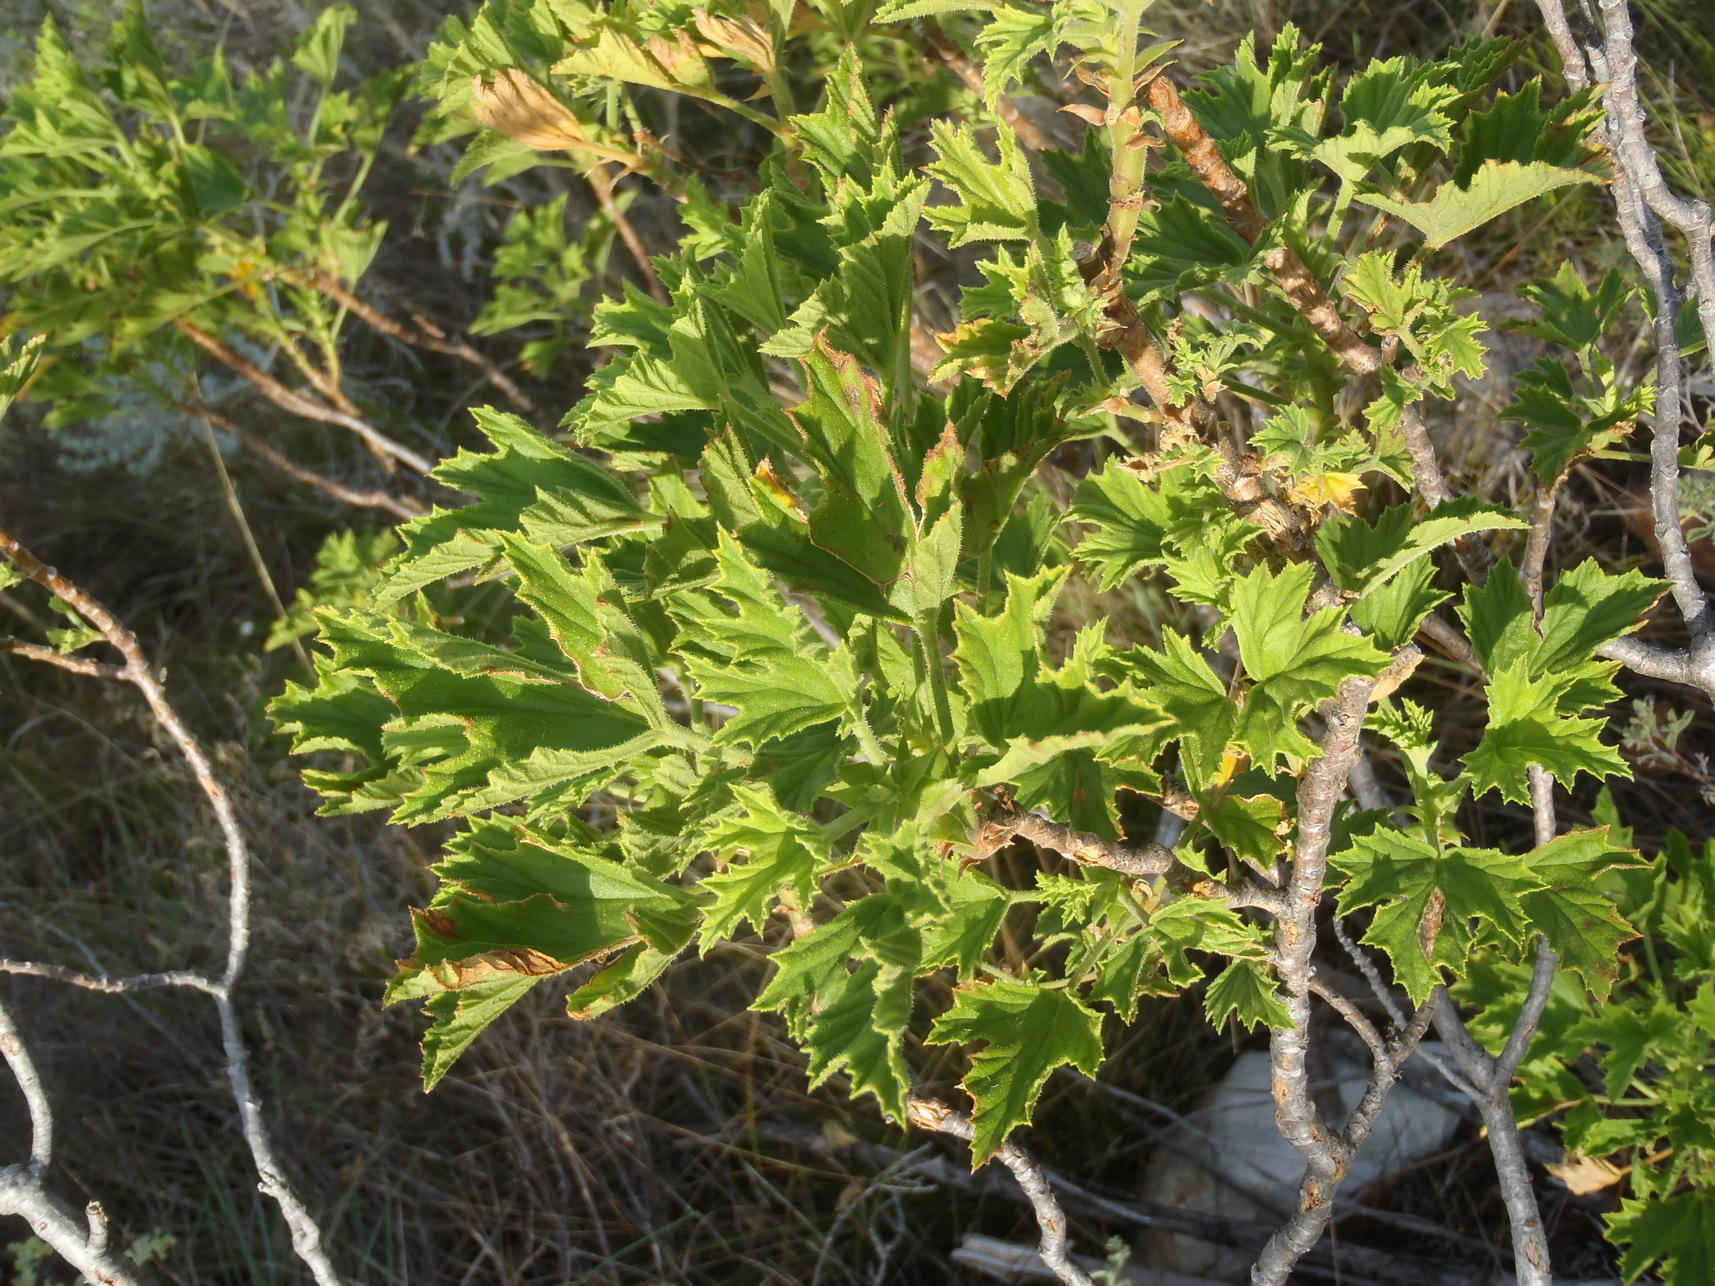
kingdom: Plantae
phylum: Tracheophyta
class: Magnoliopsida
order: Geraniales
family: Geraniaceae
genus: Pelargonium
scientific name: Pelargonium scabrum
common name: Apricot geranium
